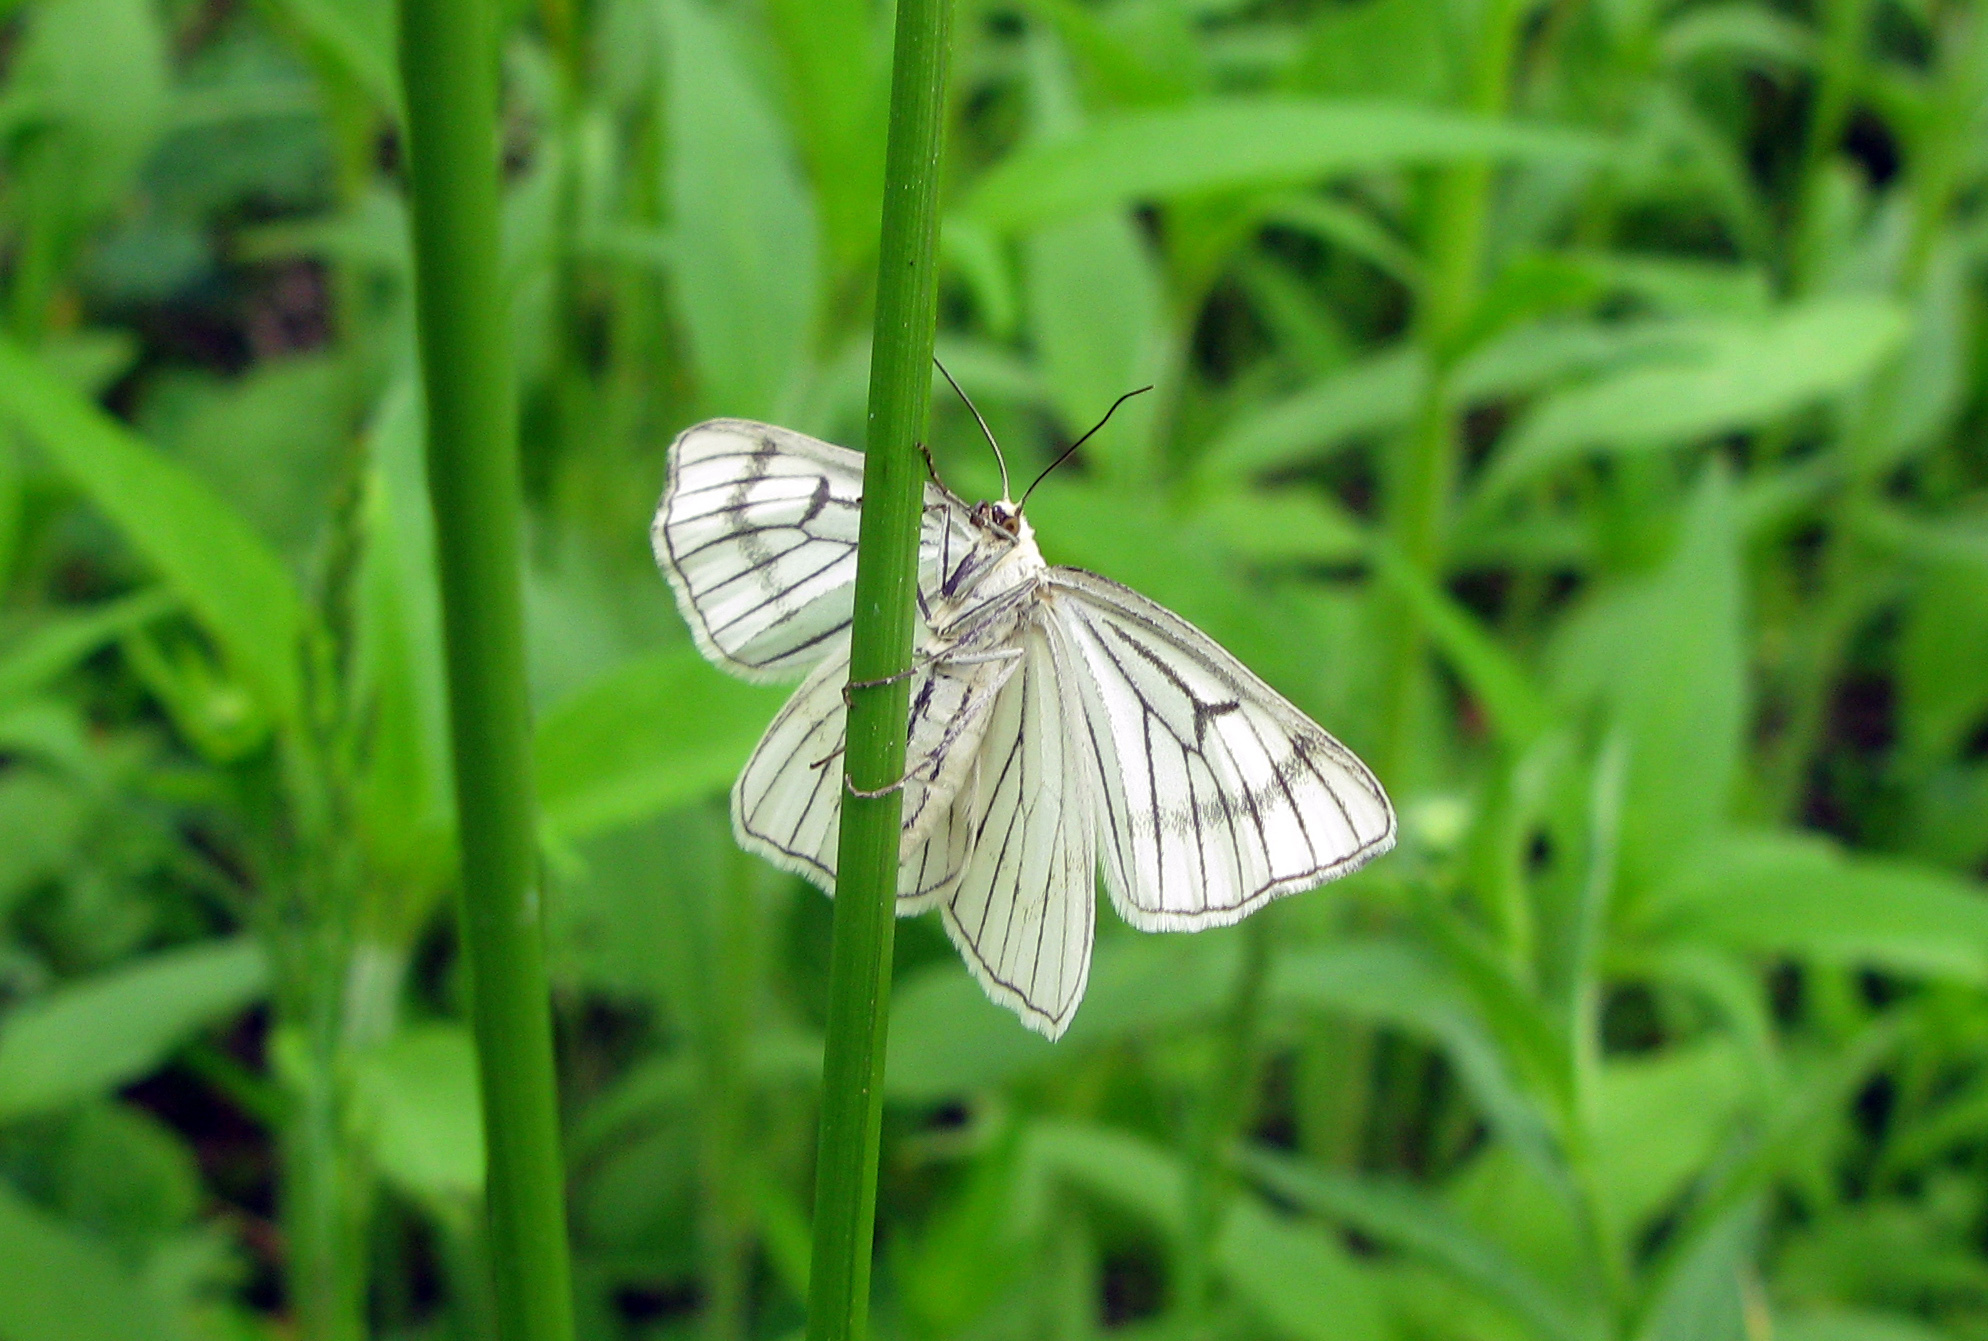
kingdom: Animalia
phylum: Arthropoda
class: Insecta
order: Lepidoptera
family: Geometridae
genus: Siona
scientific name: Siona lineata
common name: Black-veined moth
